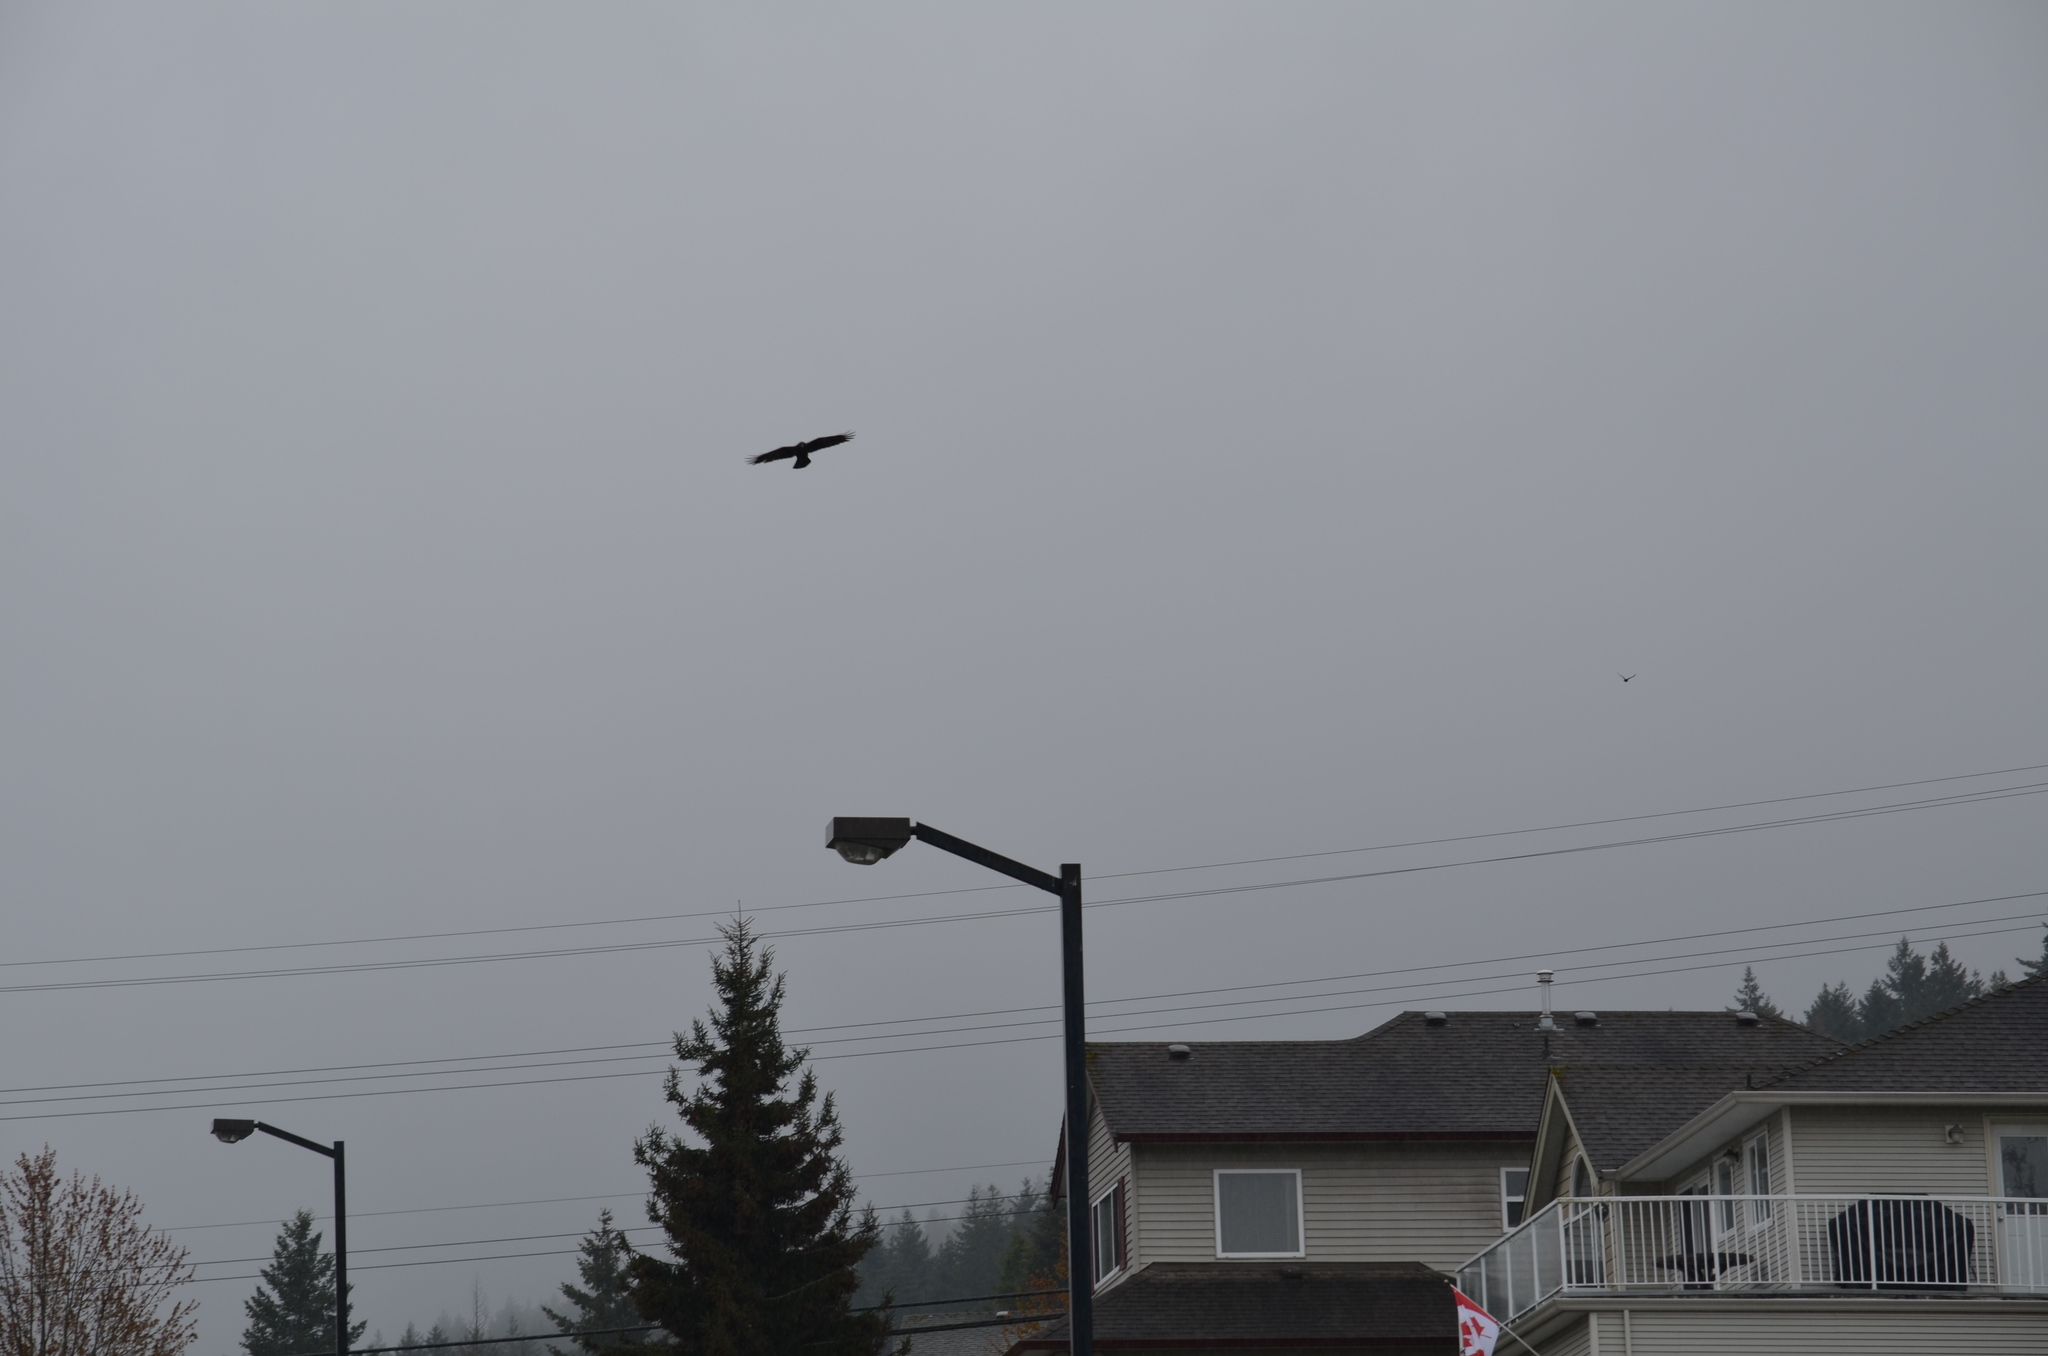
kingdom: Animalia
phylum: Chordata
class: Aves
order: Passeriformes
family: Corvidae
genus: Corvus
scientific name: Corvus brachyrhynchos
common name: American crow
